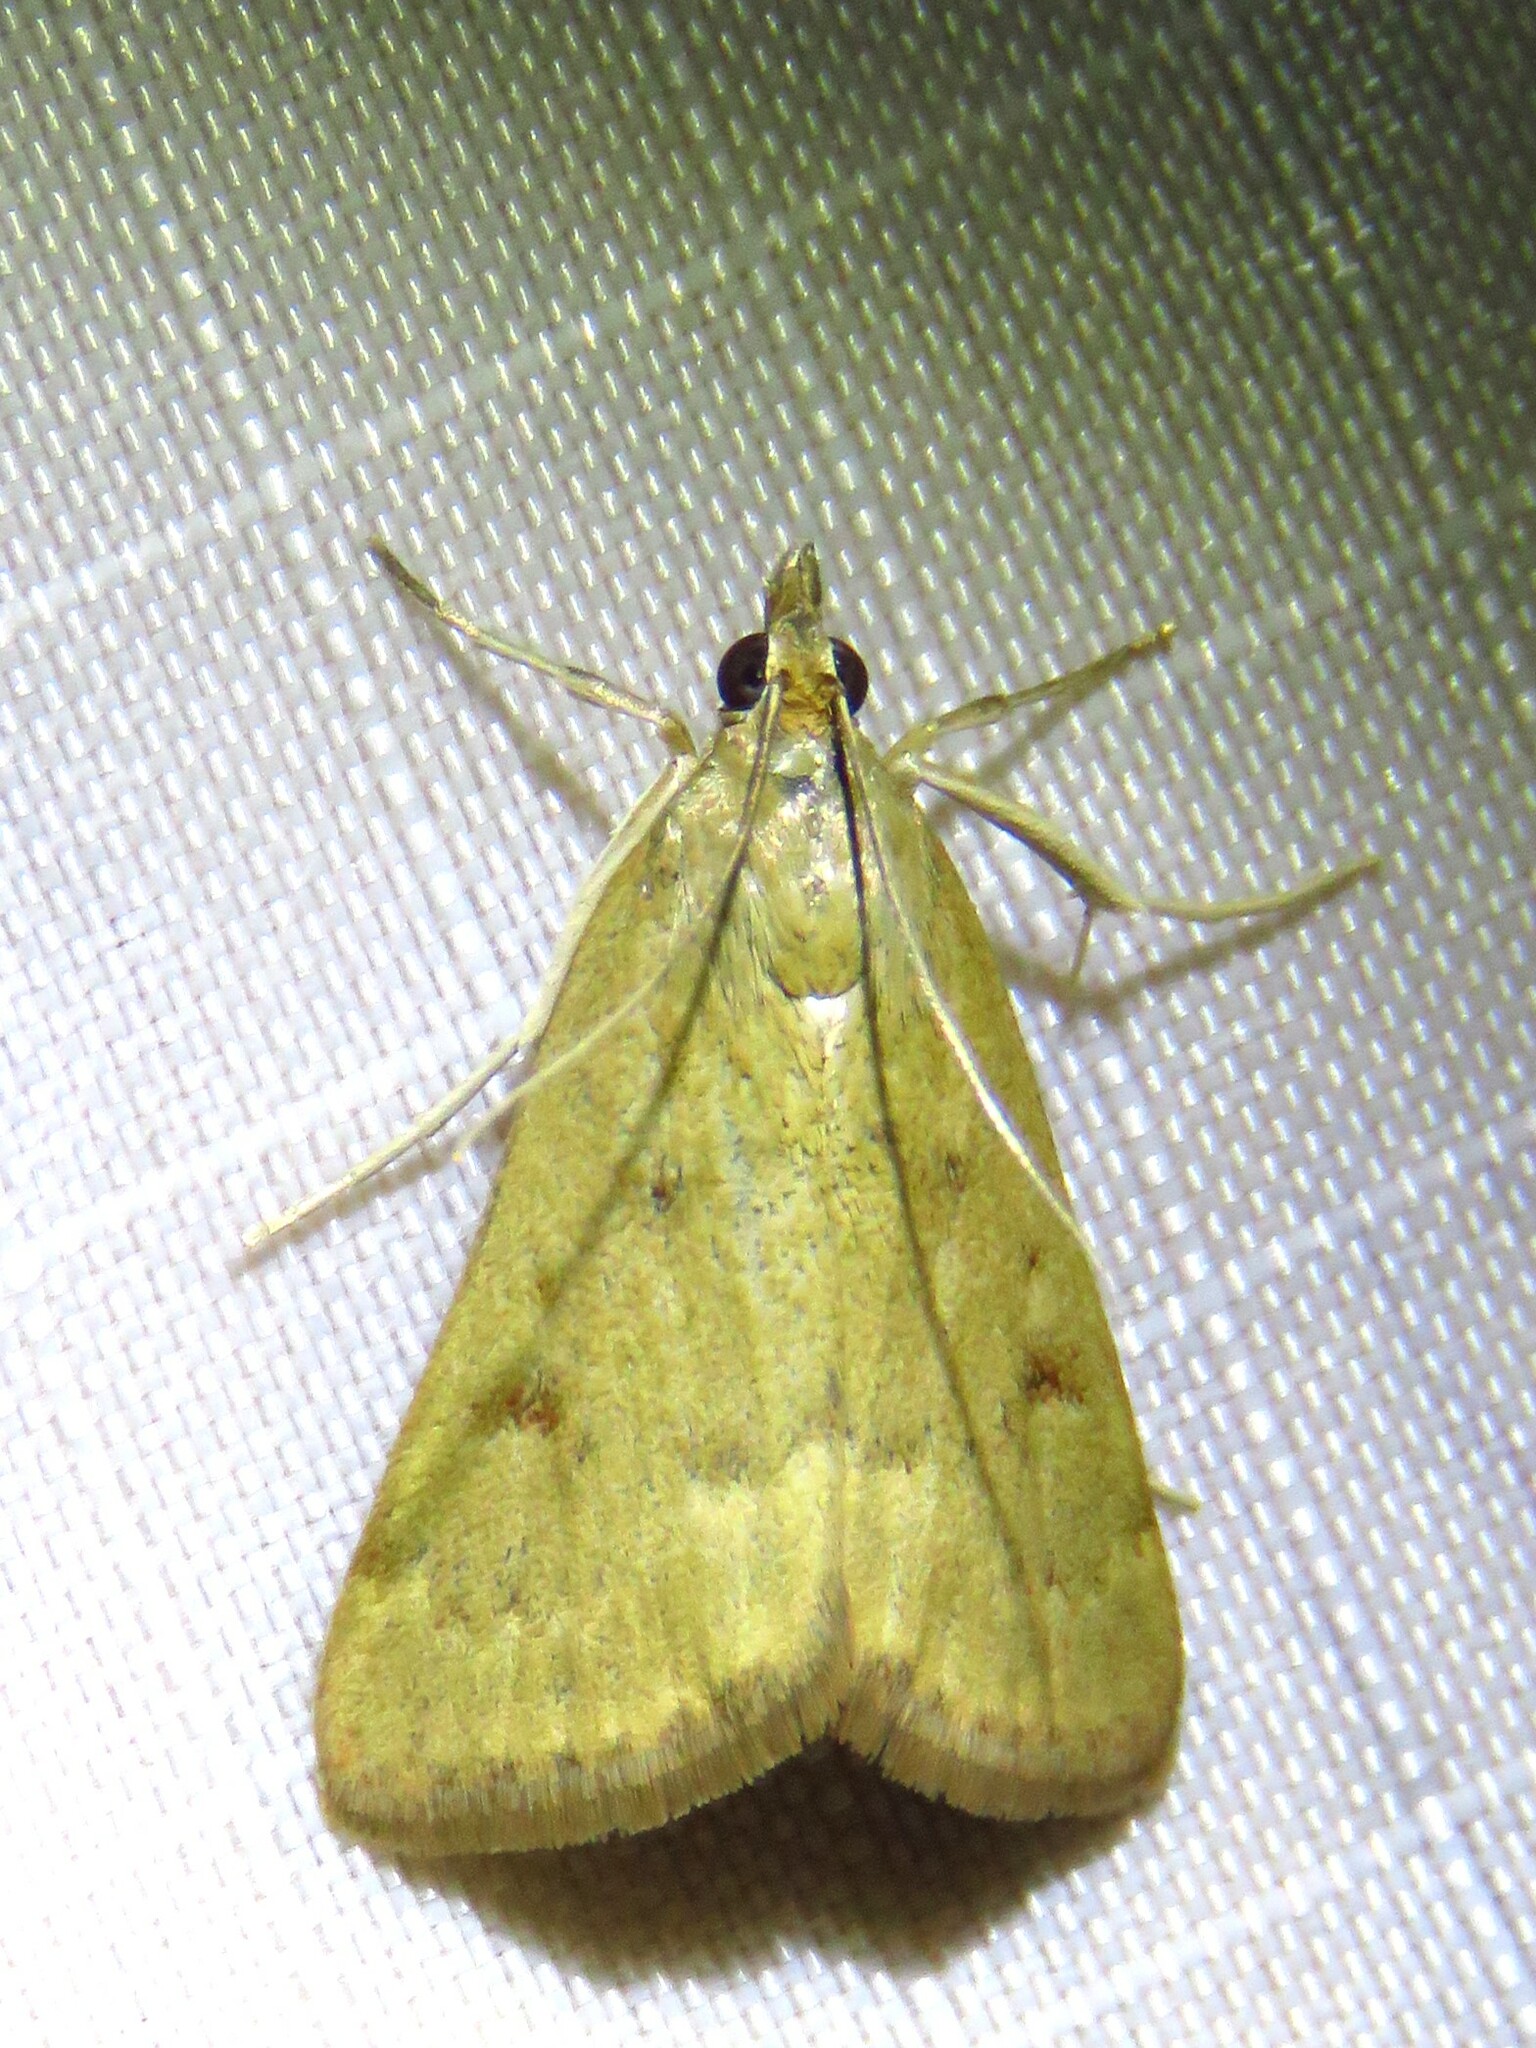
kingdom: Animalia
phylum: Arthropoda
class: Insecta
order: Lepidoptera
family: Crambidae
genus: Achyra
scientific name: Achyra rantalis
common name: Garden webworm
